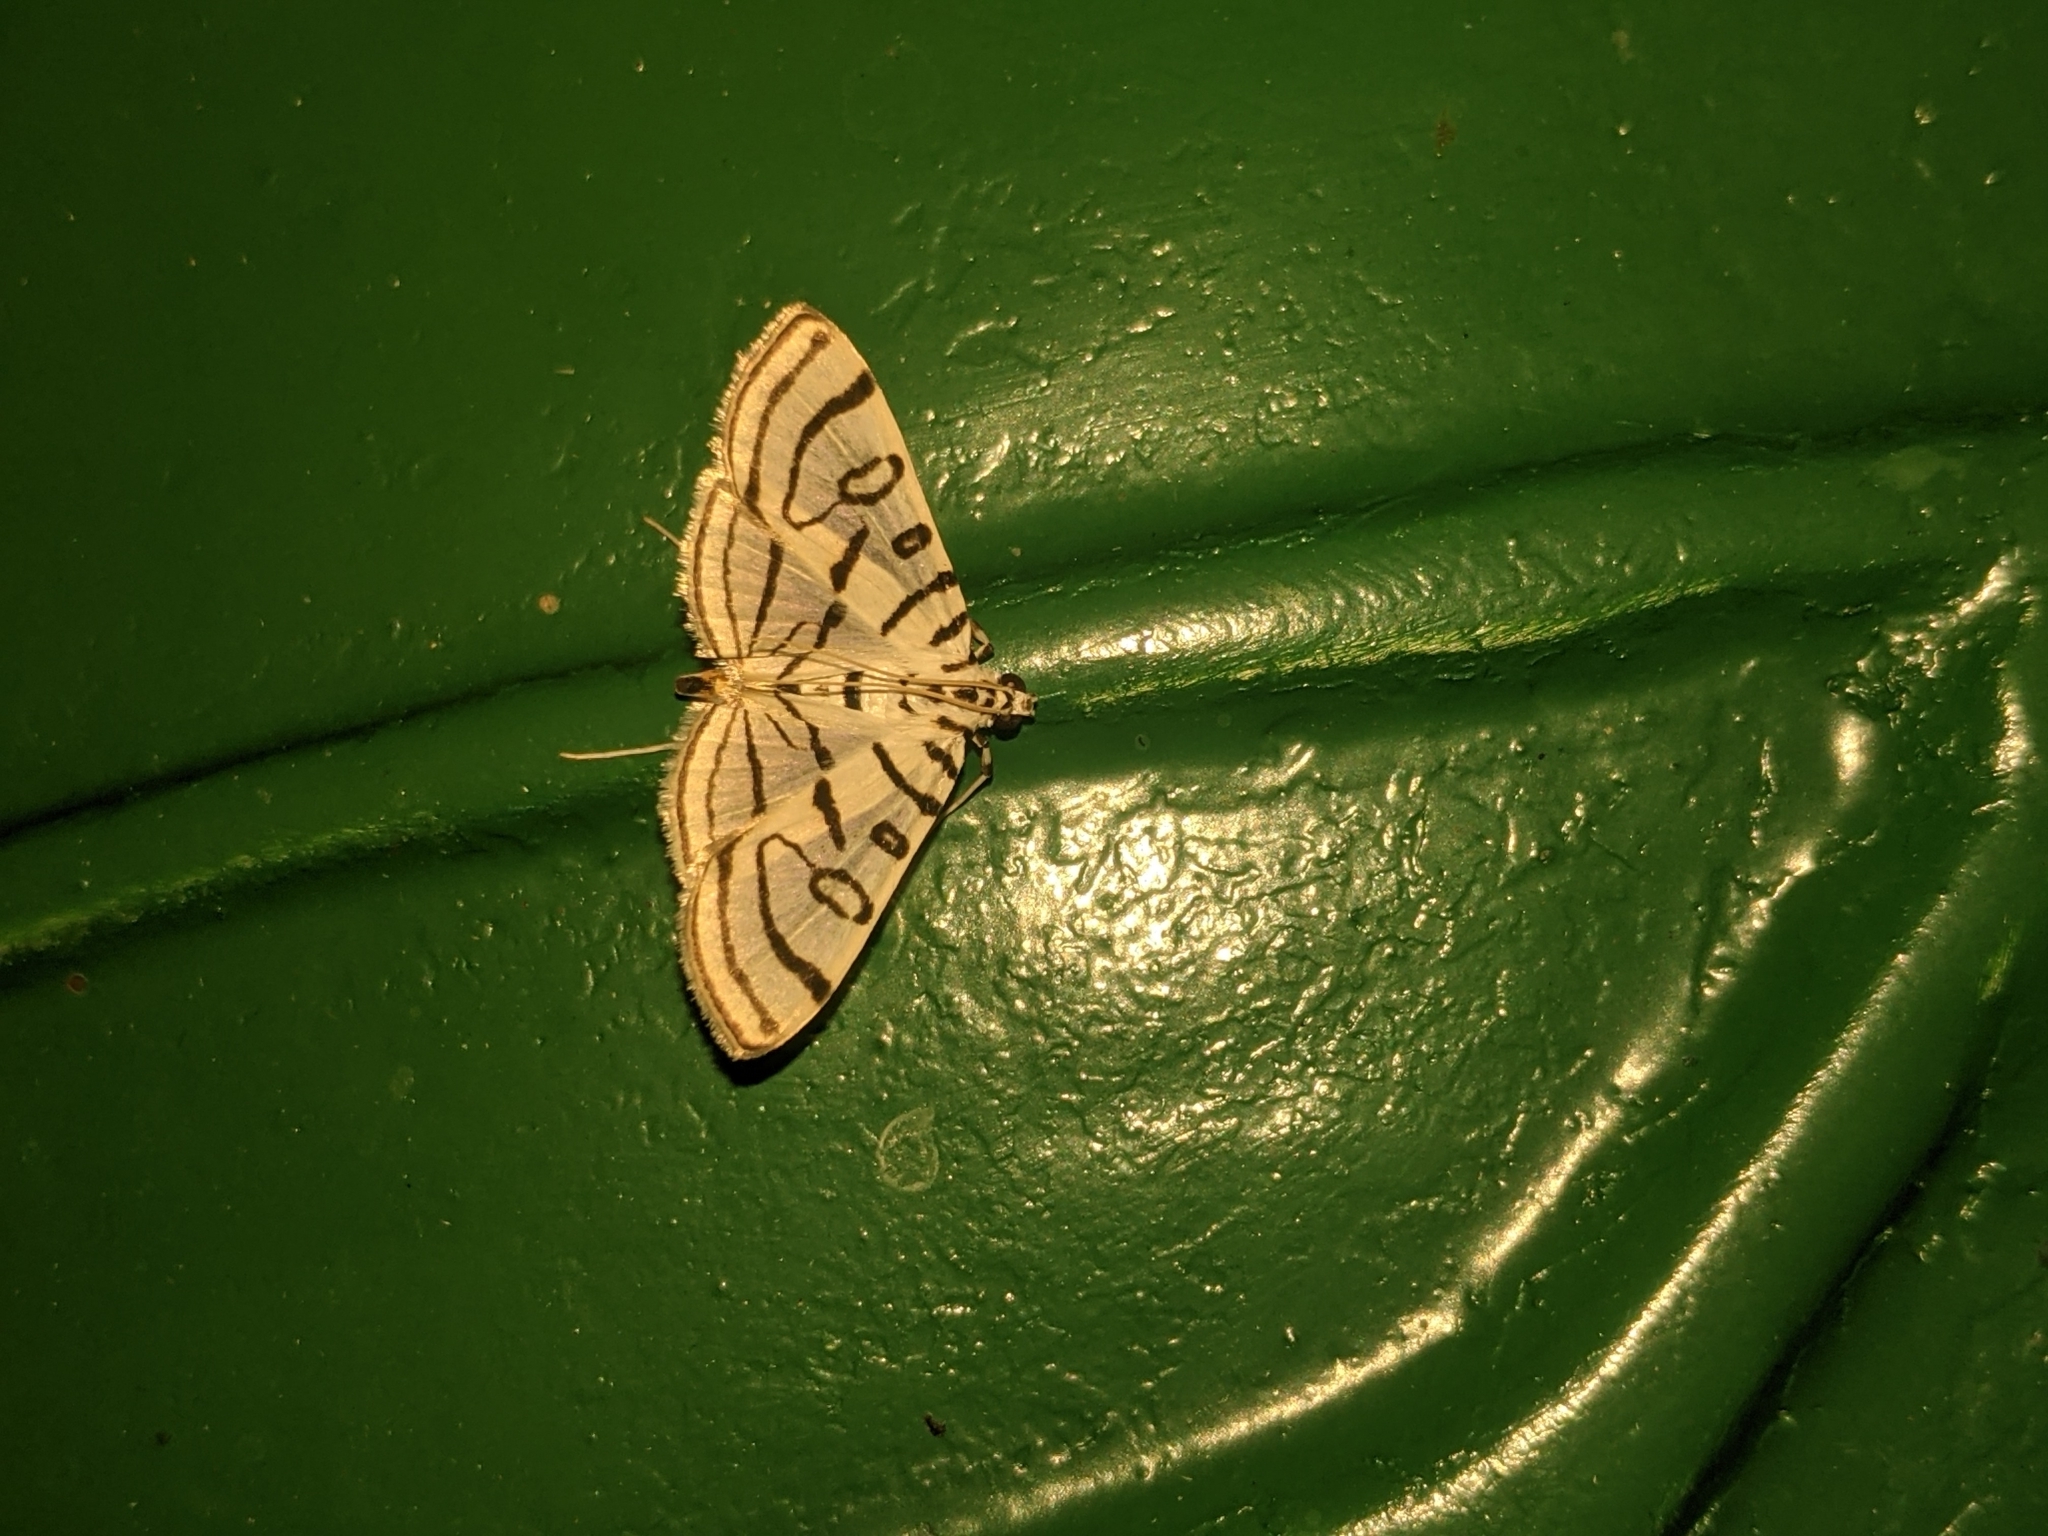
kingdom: Animalia
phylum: Arthropoda
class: Insecta
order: Lepidoptera
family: Crambidae
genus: Conchylodes
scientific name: Conchylodes ovulalis
